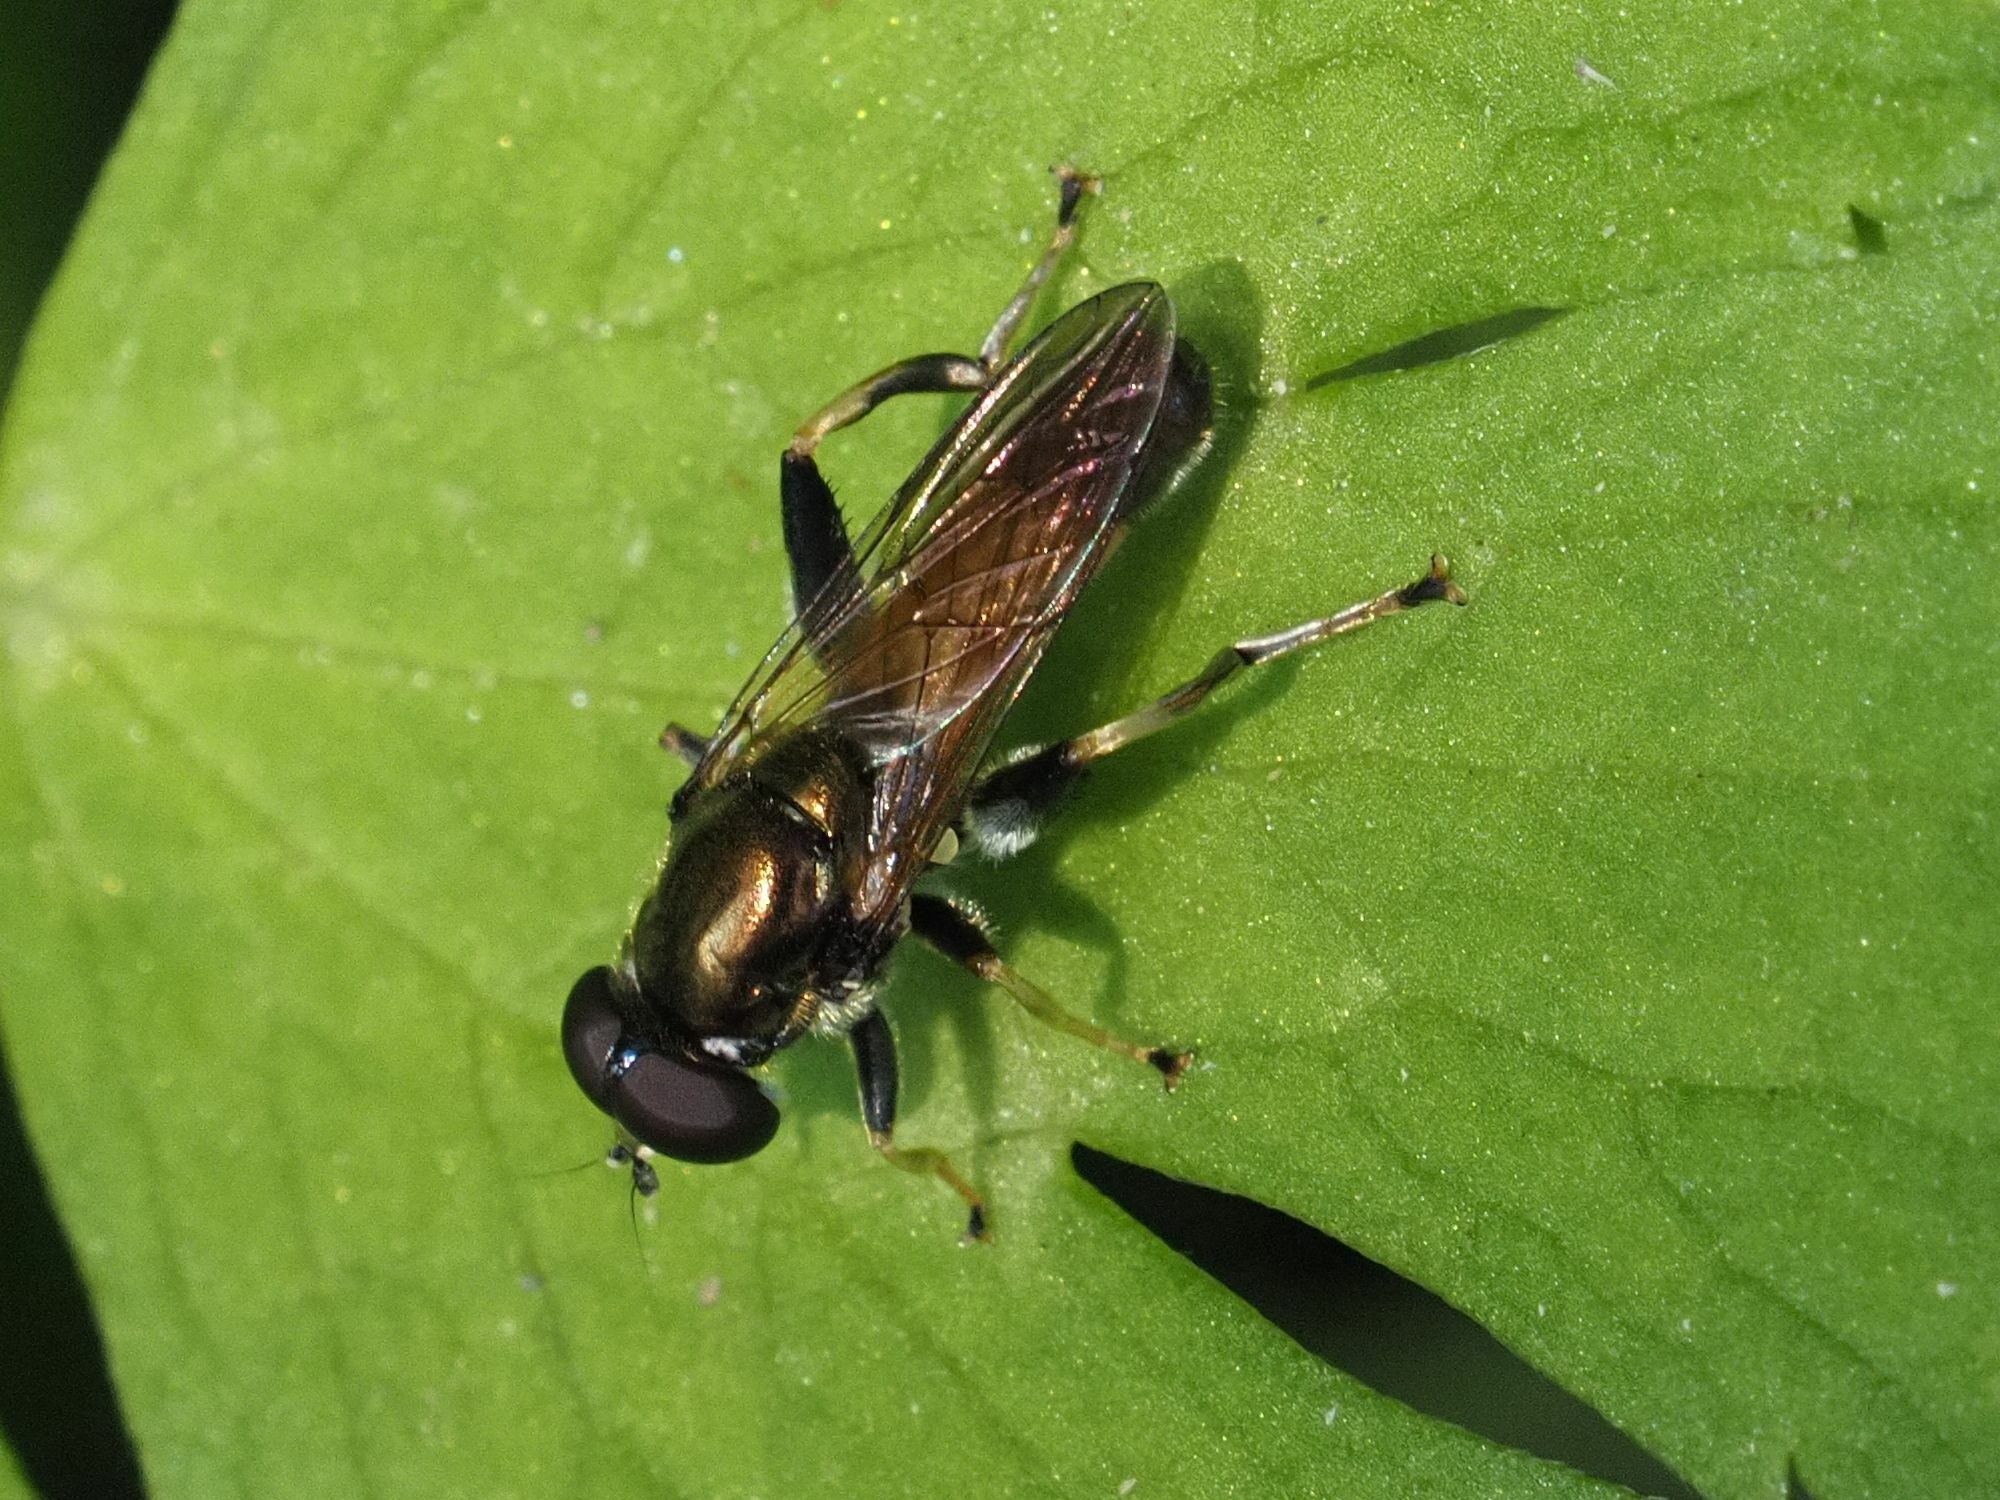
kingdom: Animalia
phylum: Arthropoda
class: Insecta
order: Diptera
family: Syrphidae
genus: Xylota
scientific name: Xylota segnis
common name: Brown-toed forest fly
